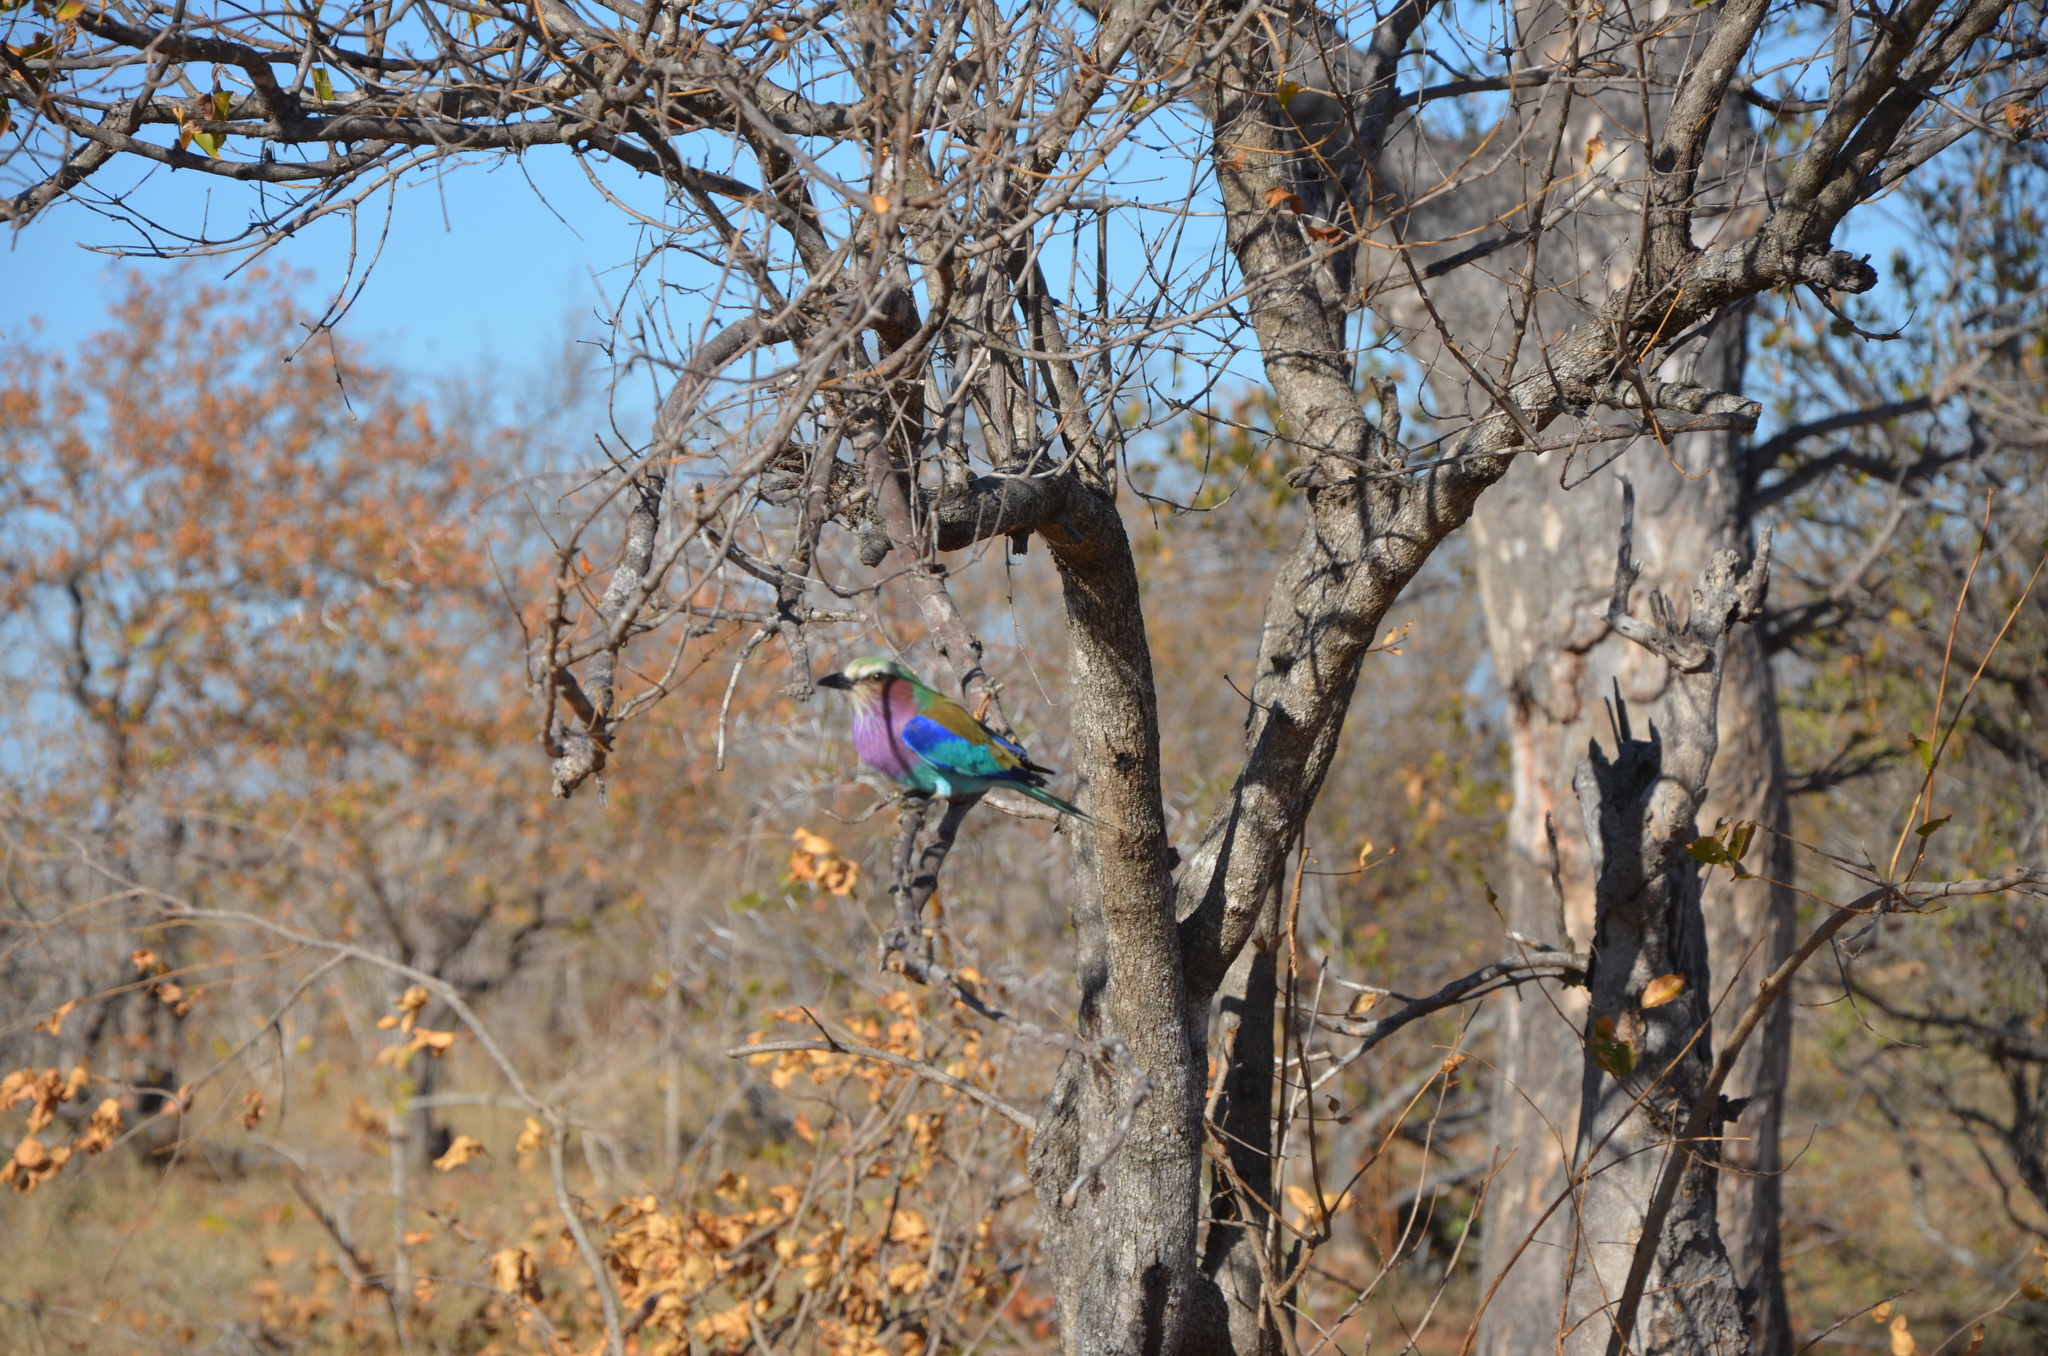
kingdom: Animalia
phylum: Chordata
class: Aves
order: Coraciiformes
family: Coraciidae
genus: Coracias
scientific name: Coracias caudatus
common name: Lilac-breasted roller
